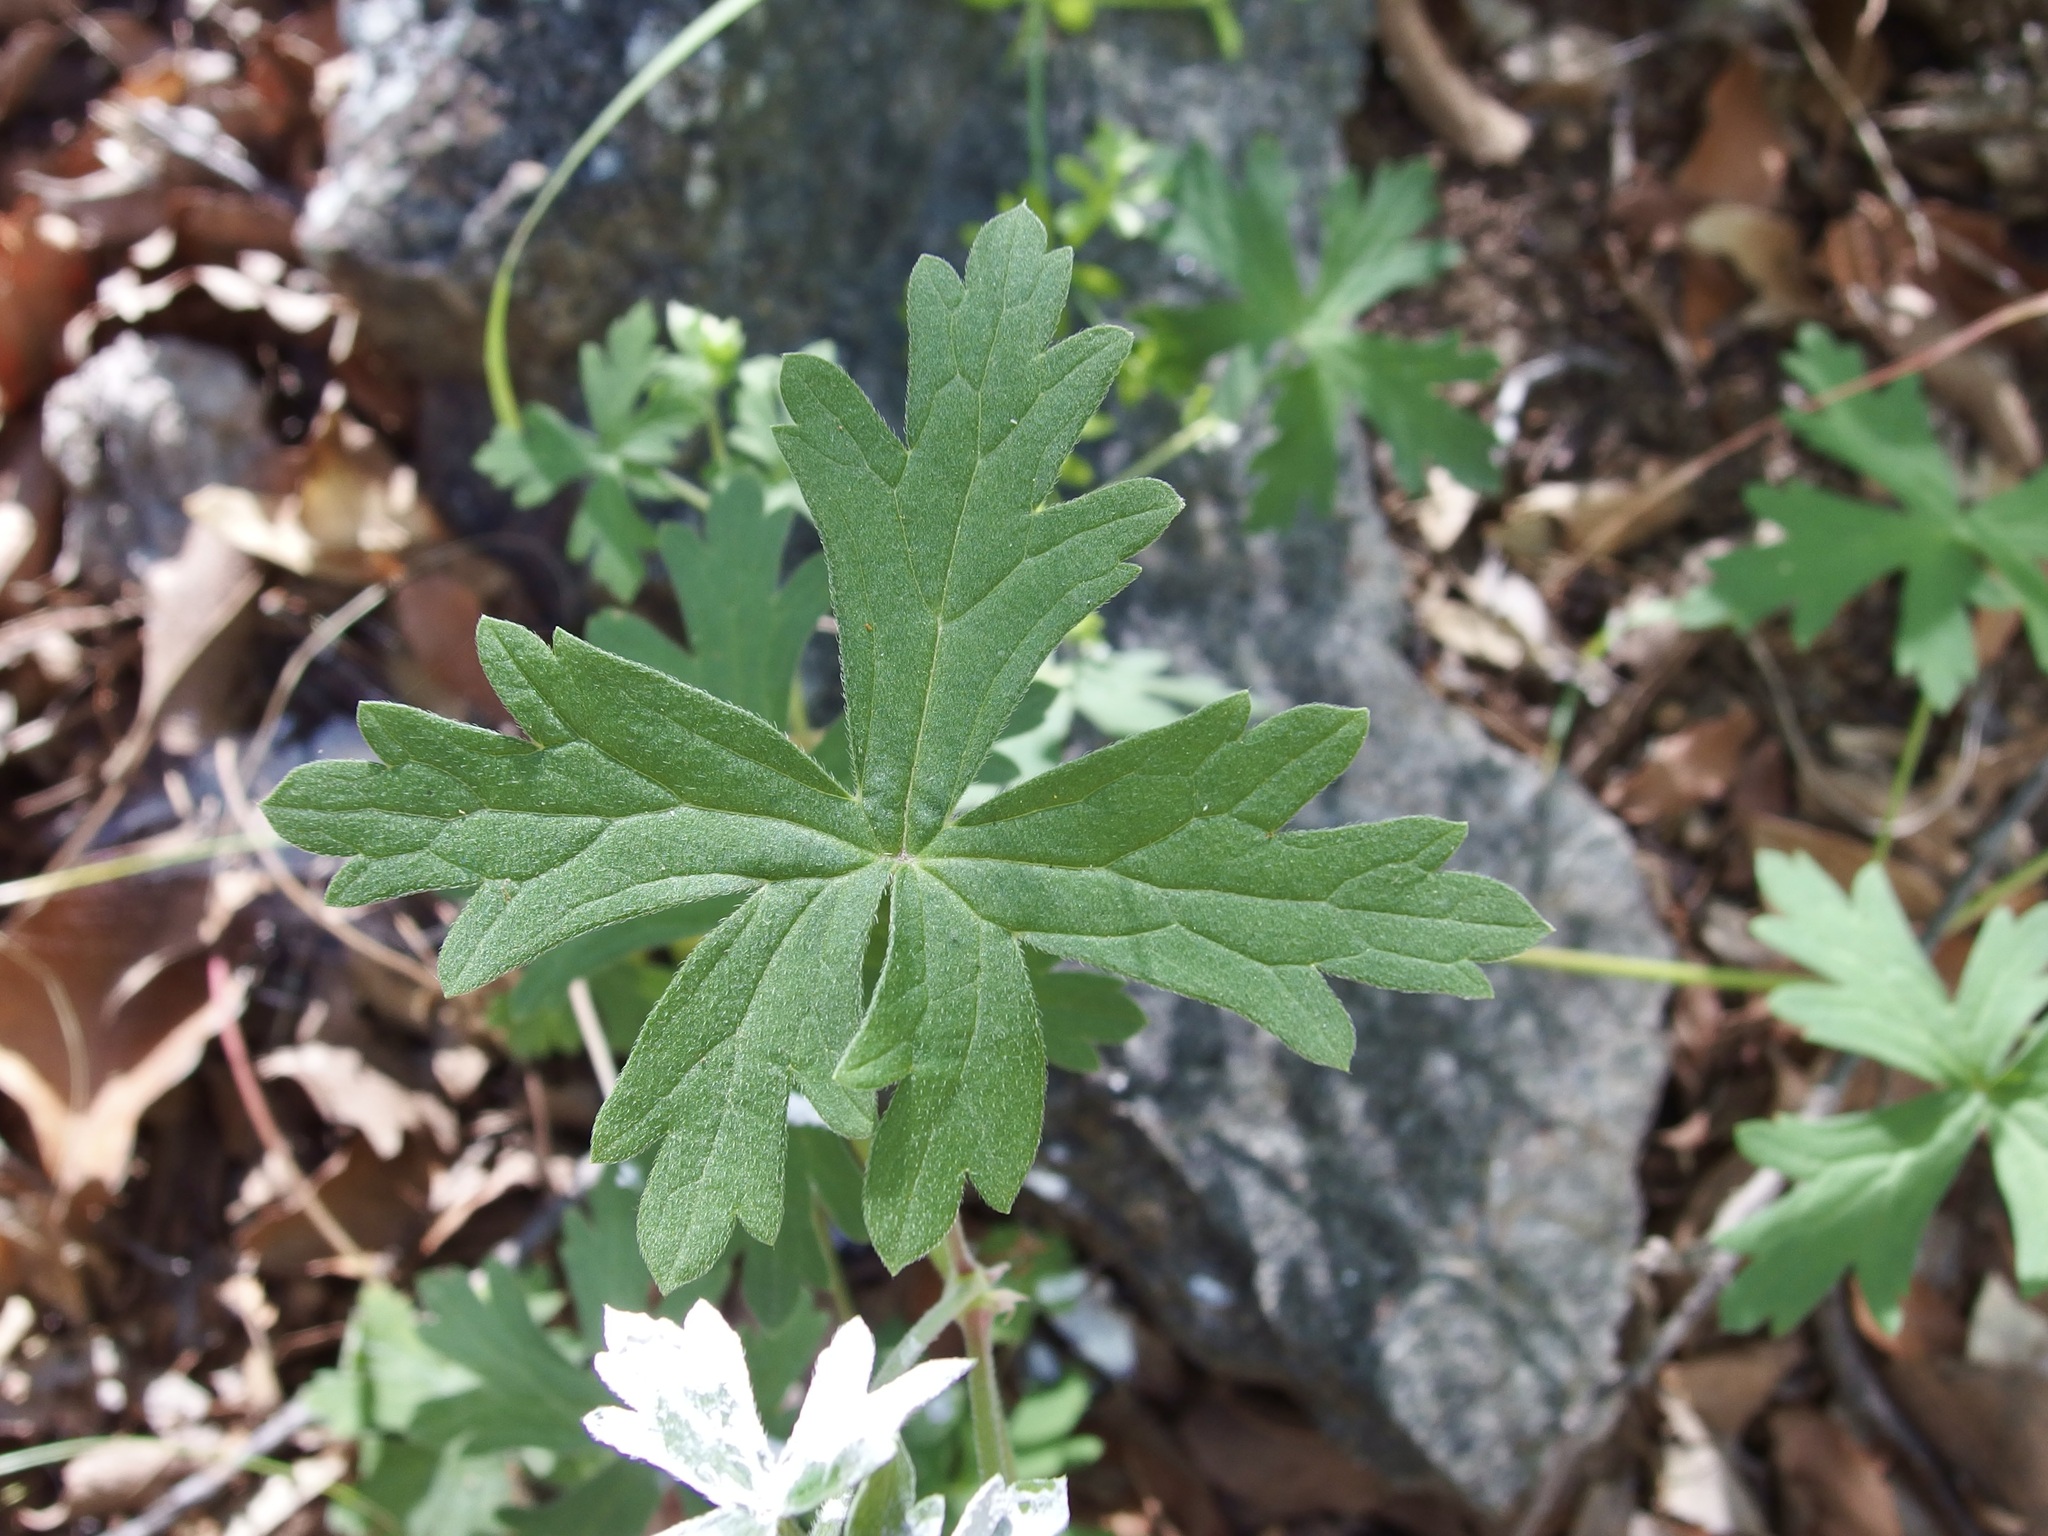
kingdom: Plantae
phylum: Tracheophyta
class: Magnoliopsida
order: Geraniales
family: Geraniaceae
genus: Geranium
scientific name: Geranium caespitosum
